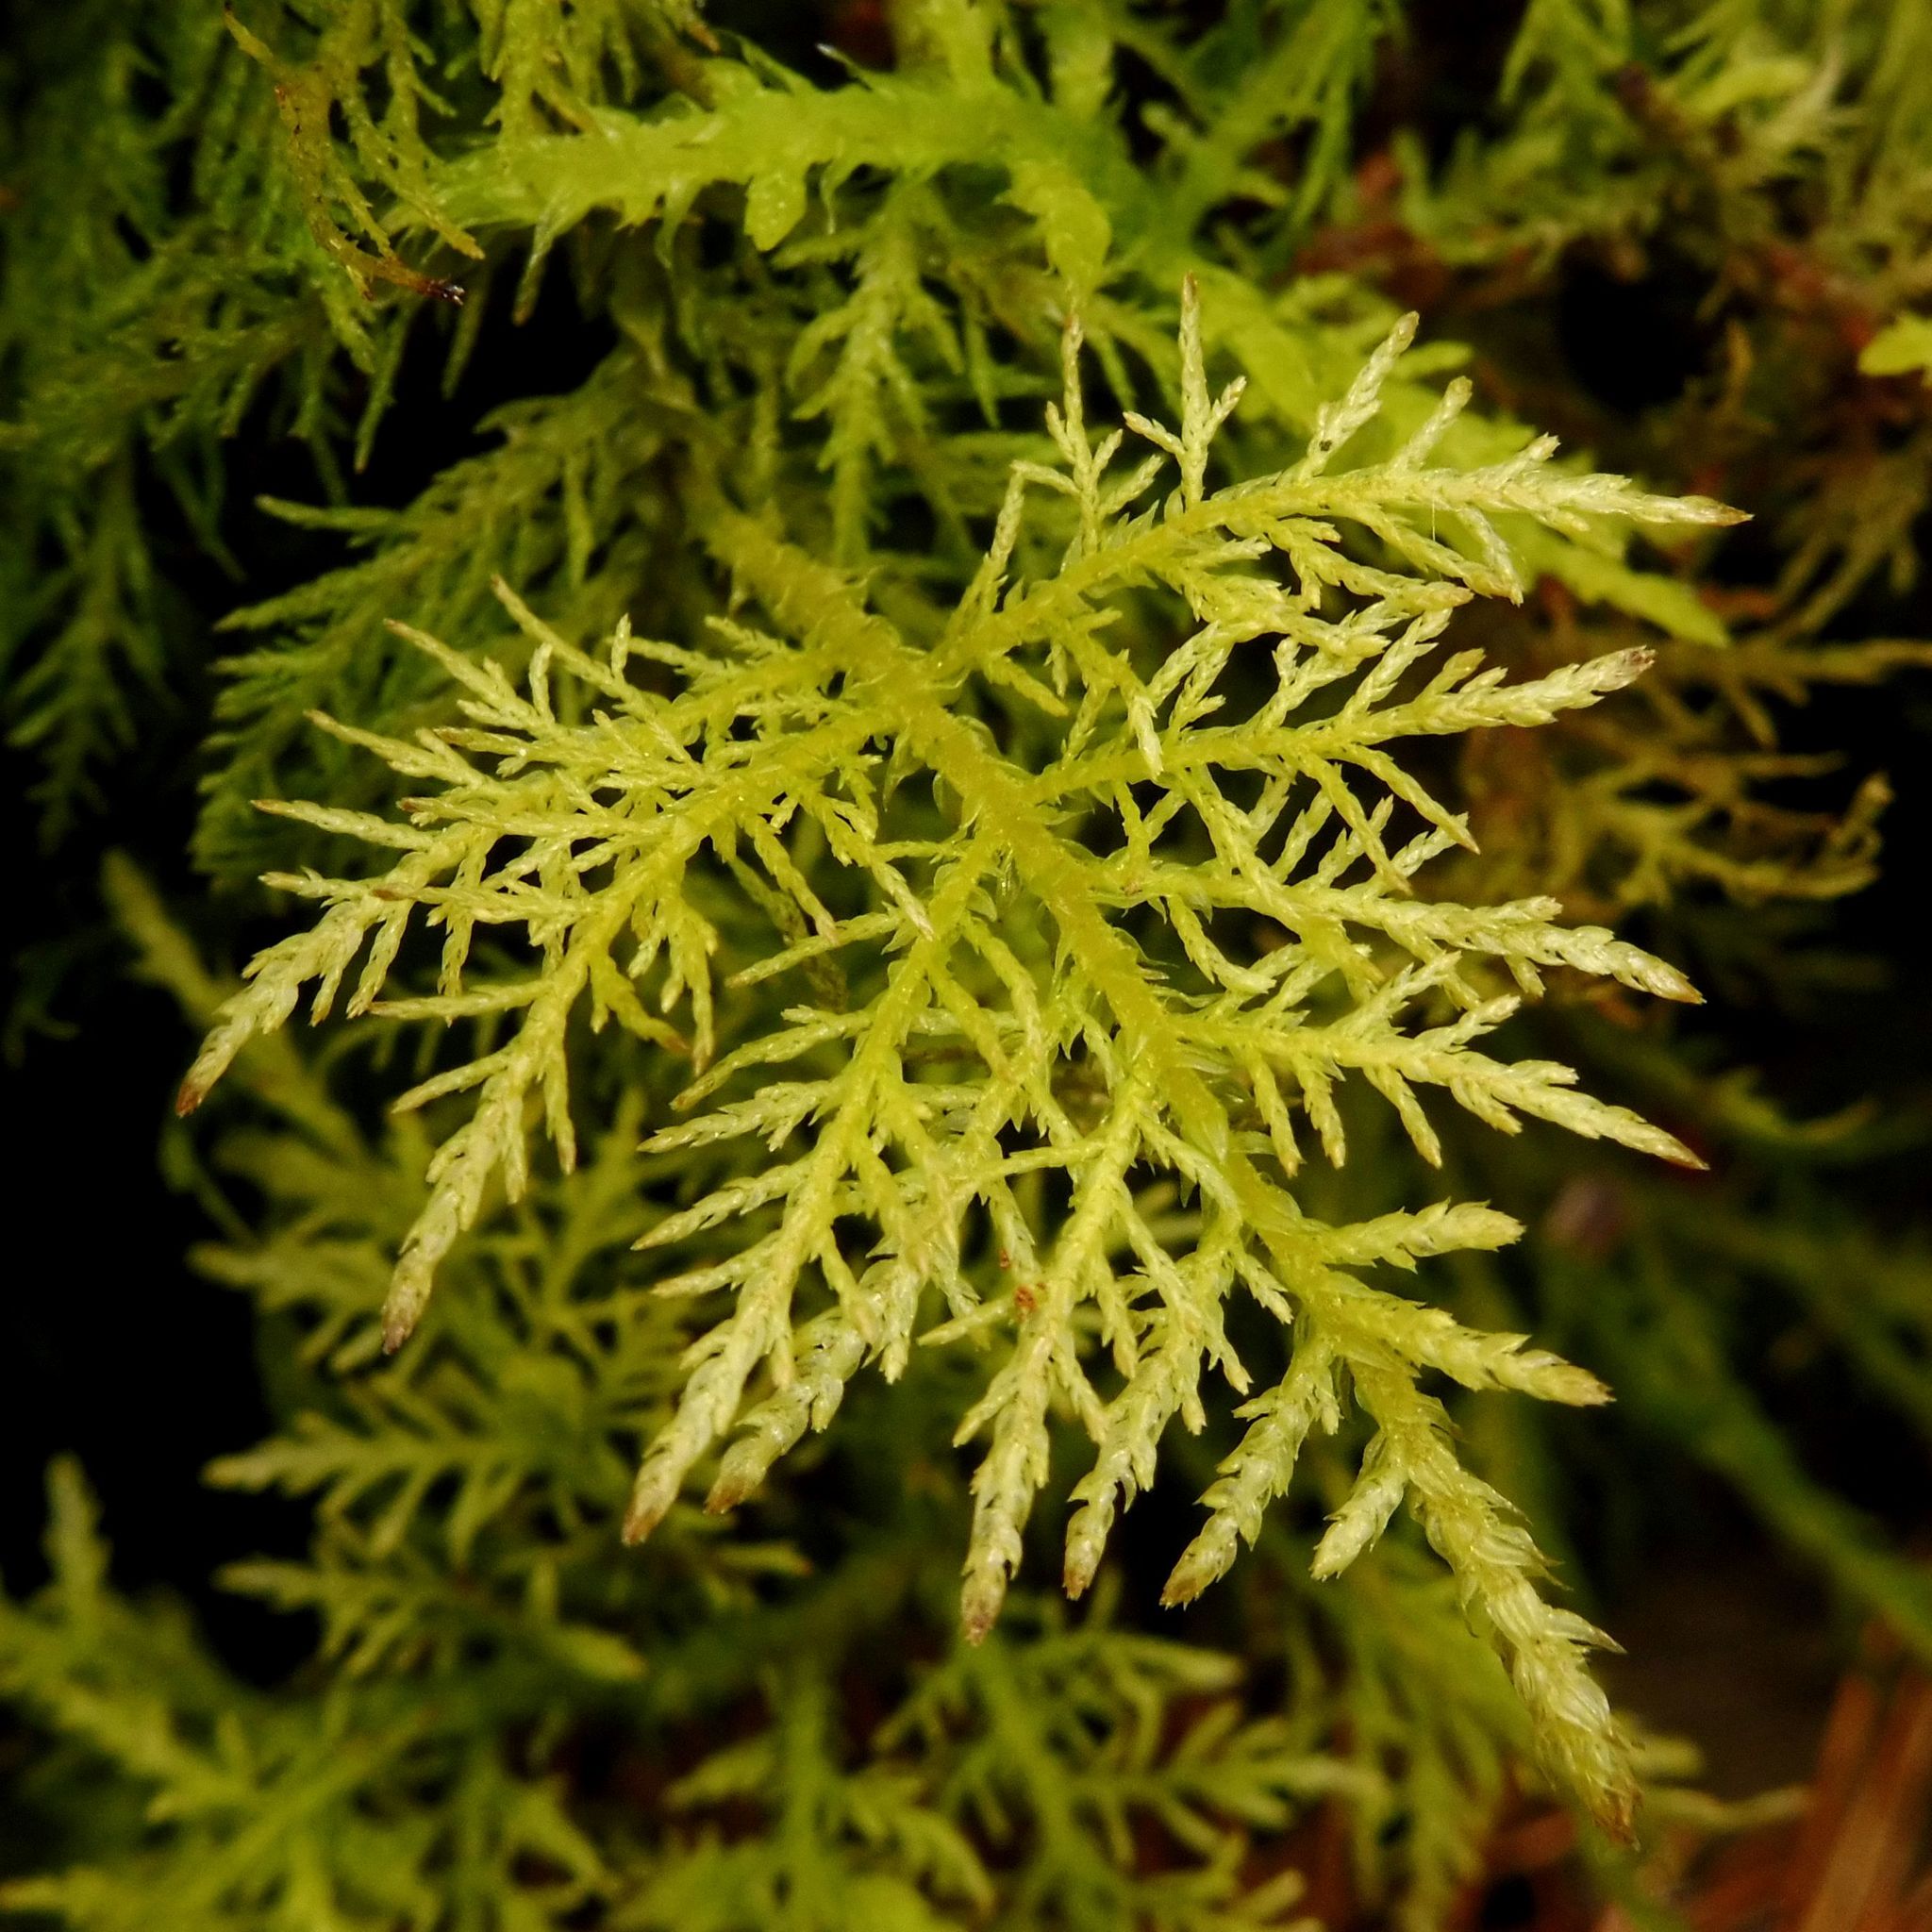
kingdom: Plantae
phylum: Bryophyta
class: Bryopsida
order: Hypnales
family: Thuidiaceae
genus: Thuidium
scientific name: Thuidium tamariscinum
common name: Common tamarisk-moss
